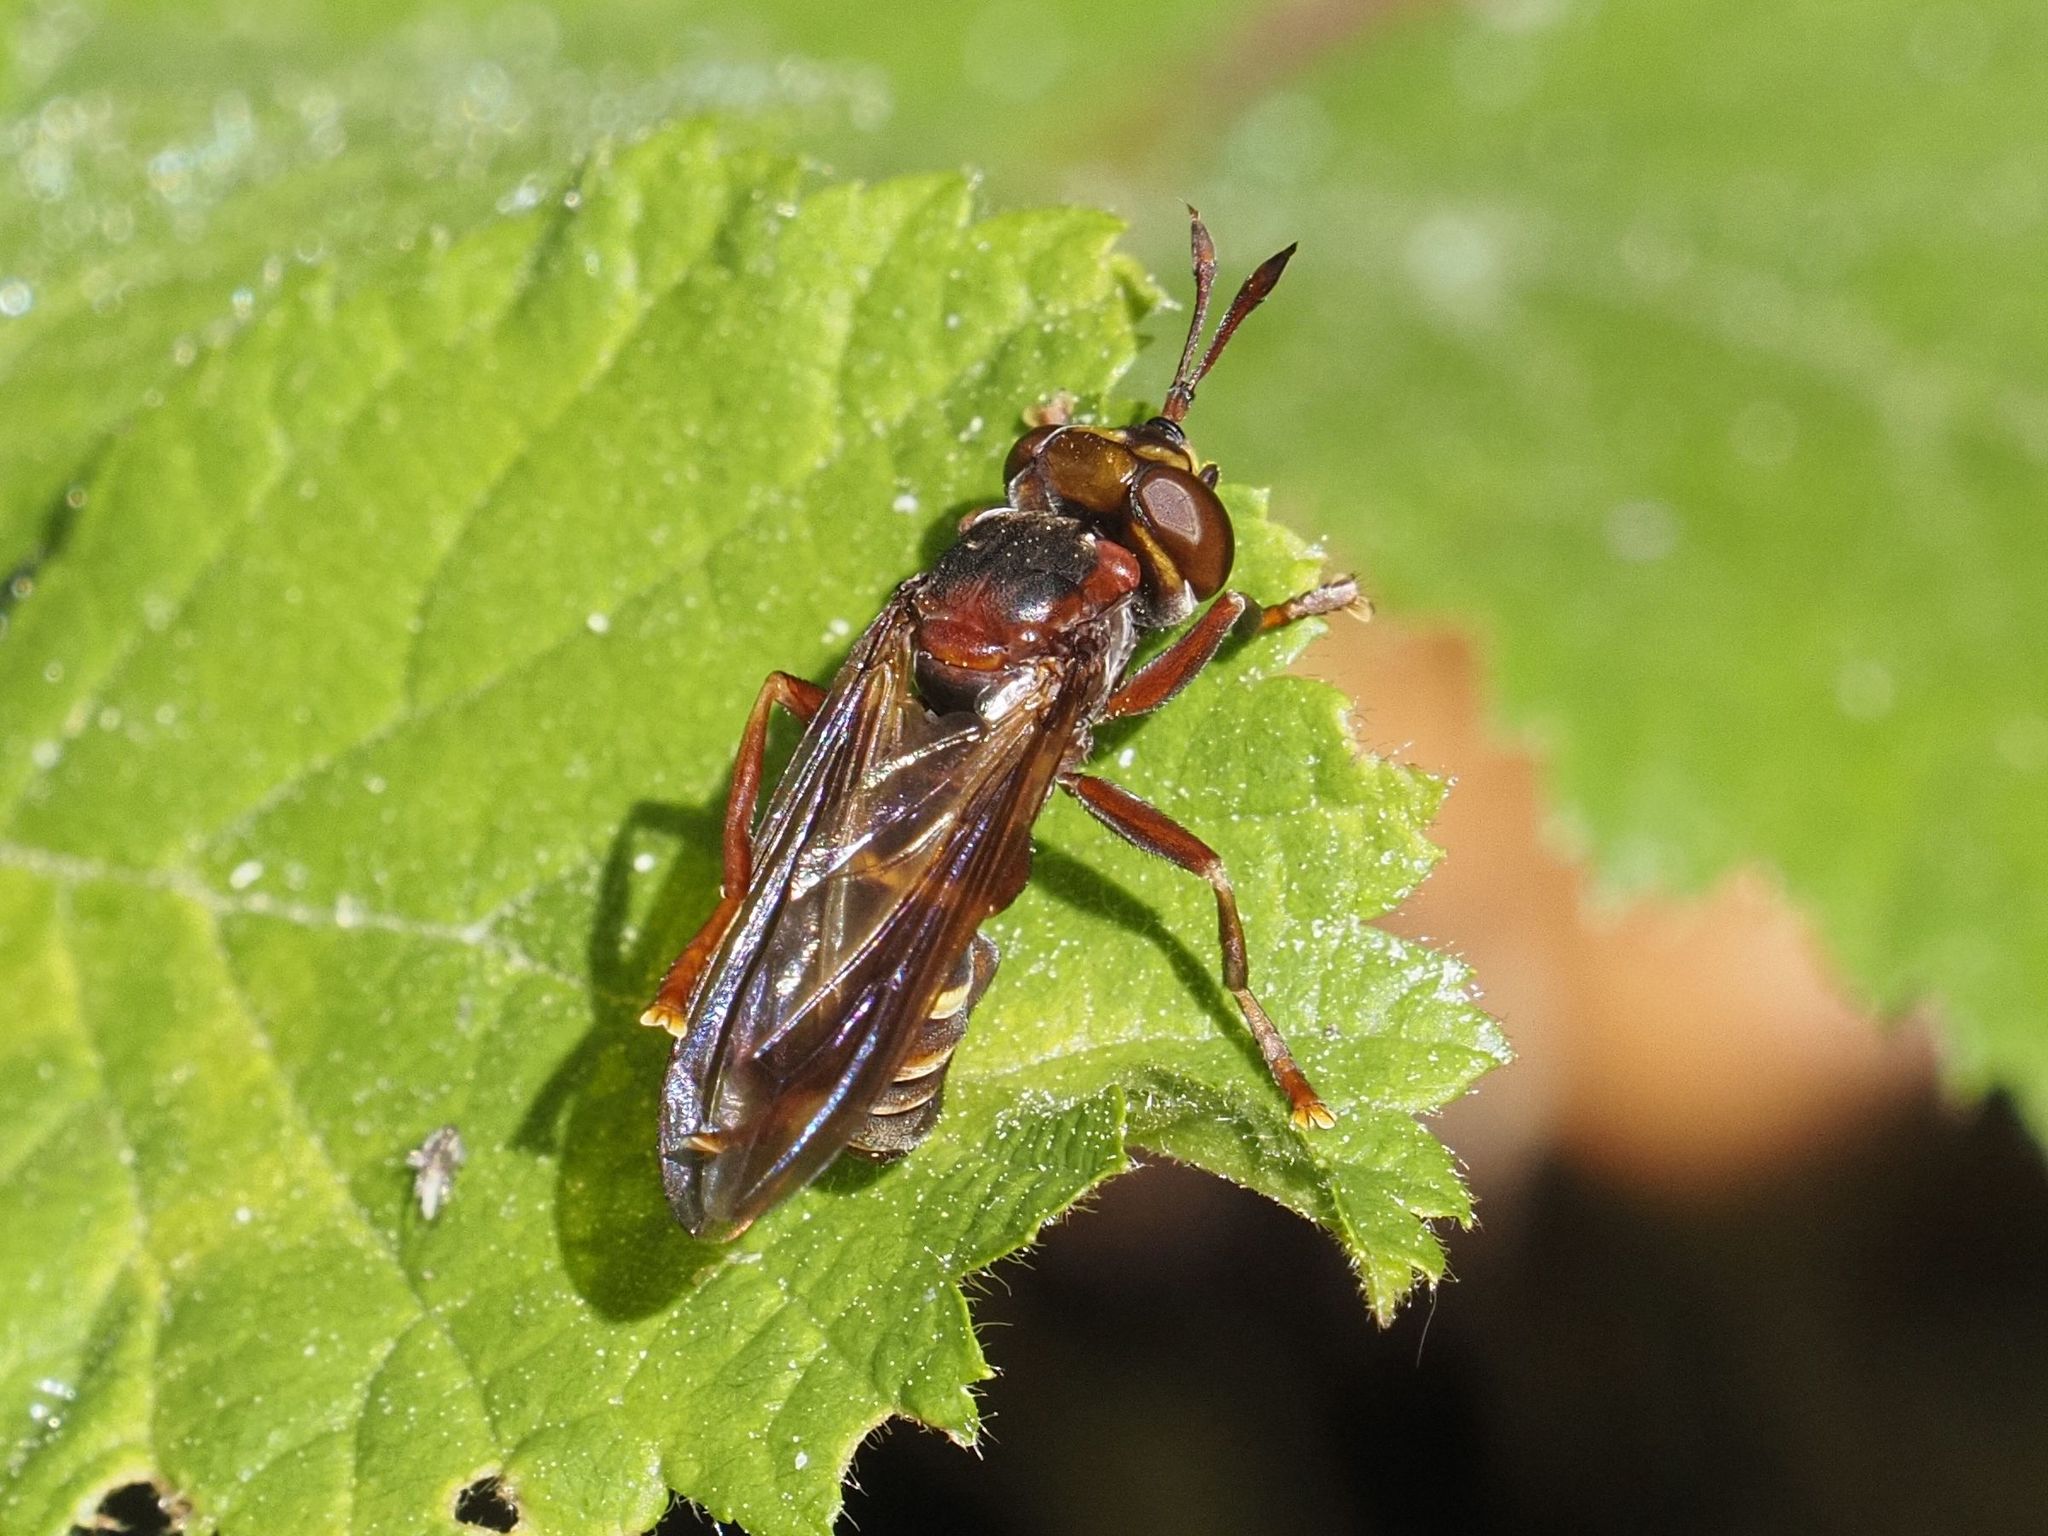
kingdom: Animalia
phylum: Arthropoda
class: Insecta
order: Diptera
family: Conopidae
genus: Conops
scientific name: Conops vesicularis
